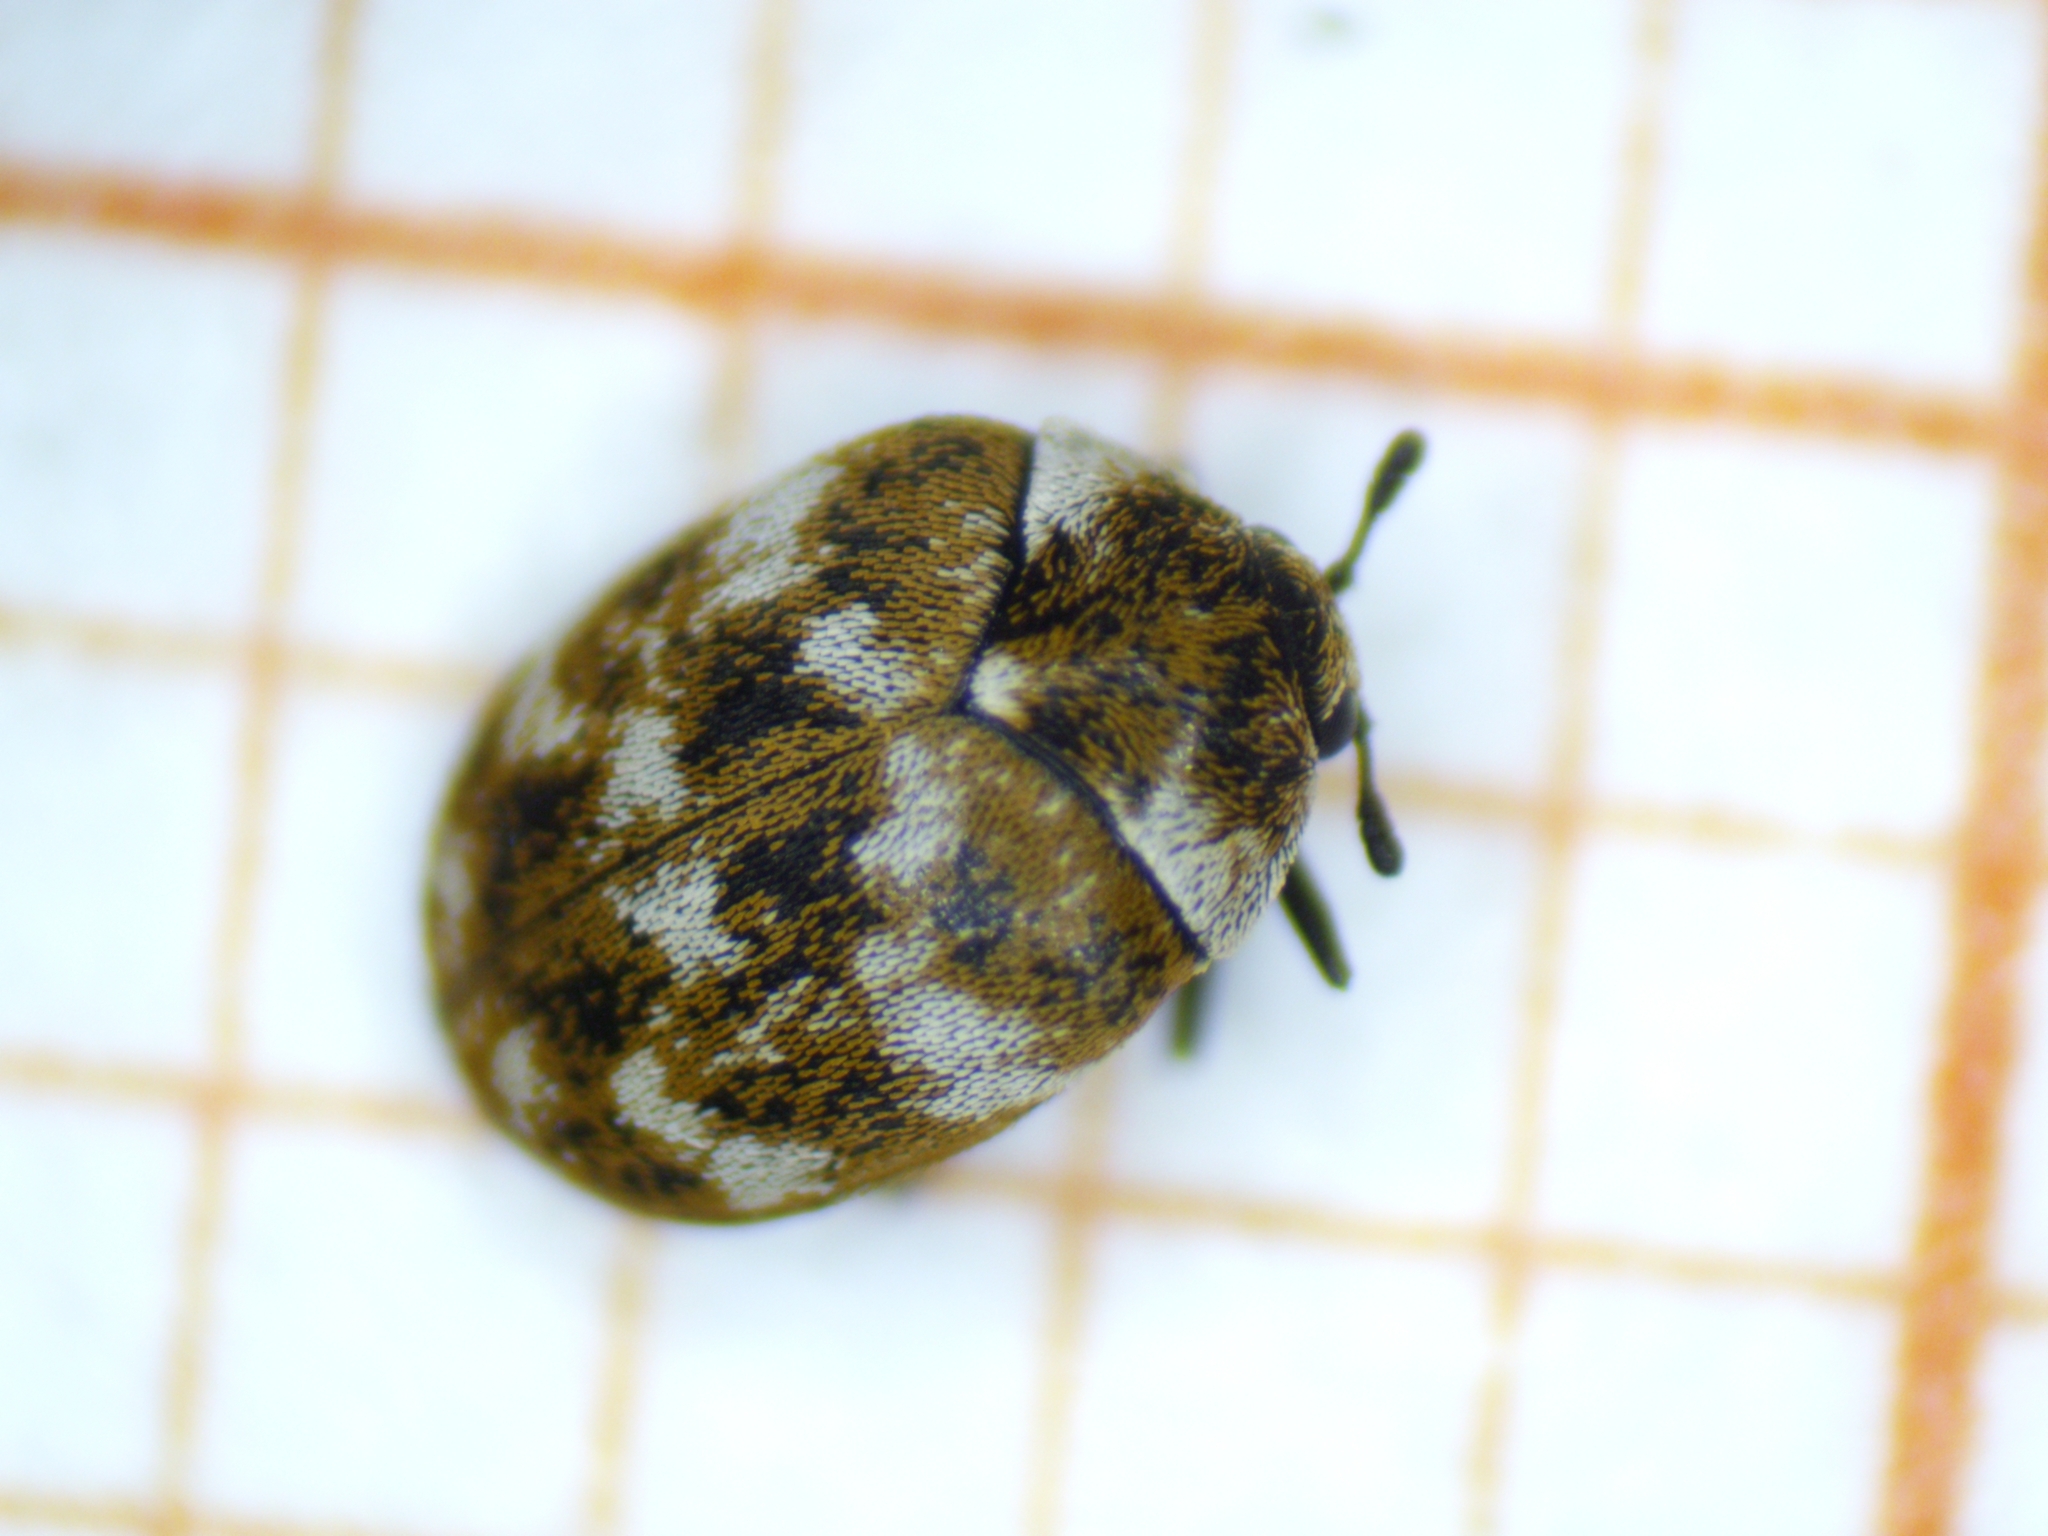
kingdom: Animalia
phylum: Arthropoda
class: Insecta
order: Coleoptera
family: Dermestidae
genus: Anthrenus
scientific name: Anthrenus verbasci
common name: Varied carpet beetle
